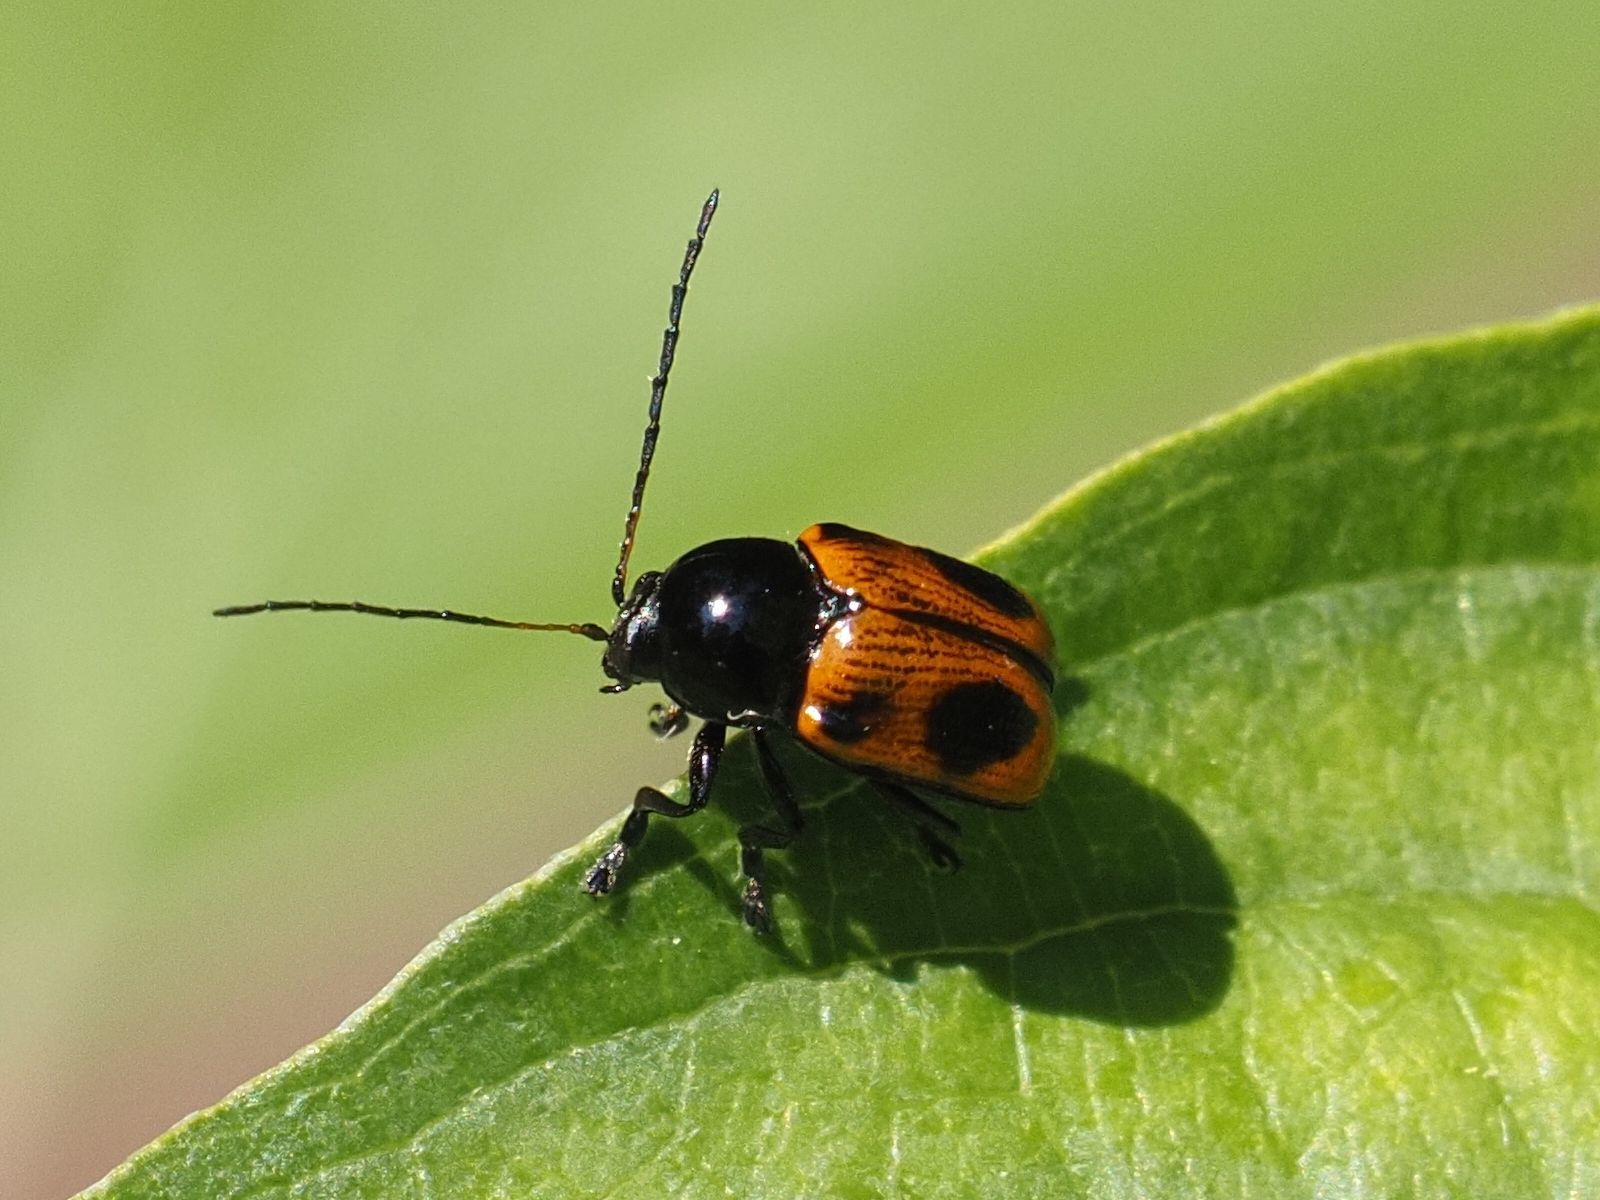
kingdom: Animalia
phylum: Arthropoda
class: Insecta
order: Coleoptera
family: Chrysomelidae
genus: Chiridopsis
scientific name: Chiridopsis bipunctata
